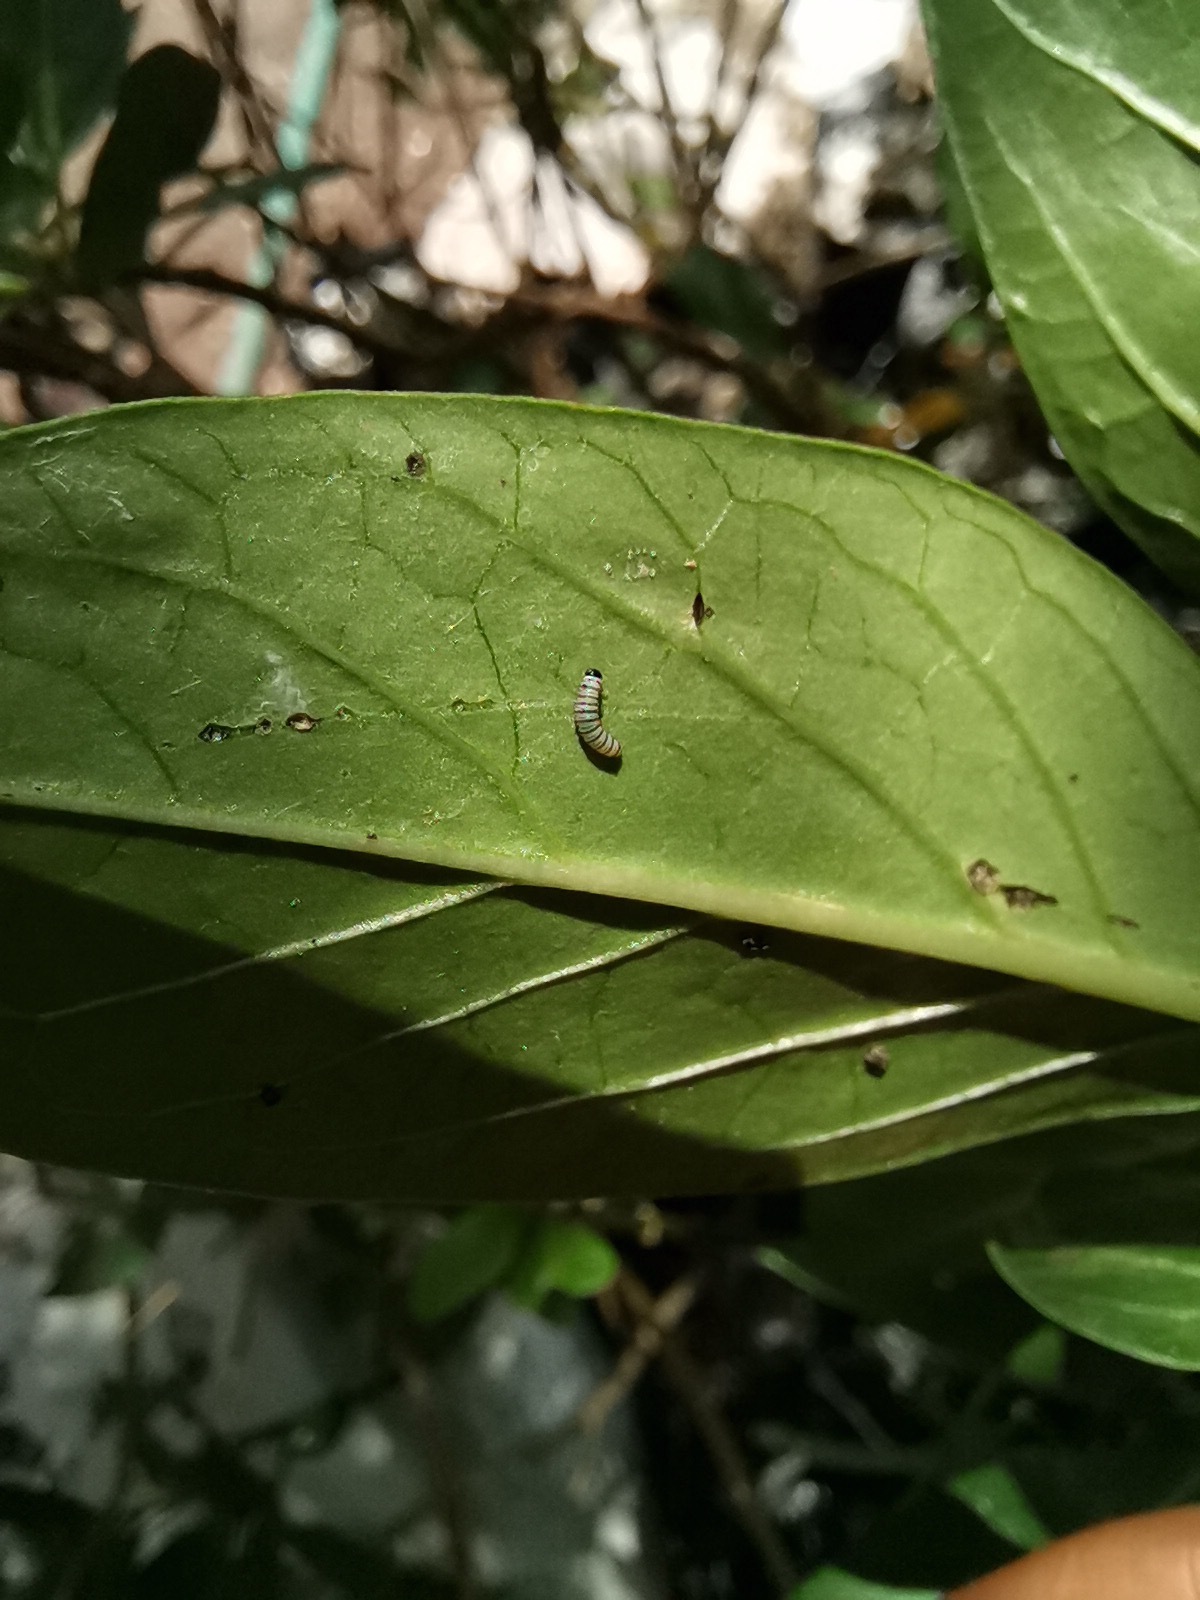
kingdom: Animalia
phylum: Arthropoda
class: Insecta
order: Lepidoptera
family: Nymphalidae
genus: Danaus
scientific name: Danaus plexippus
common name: Monarch
